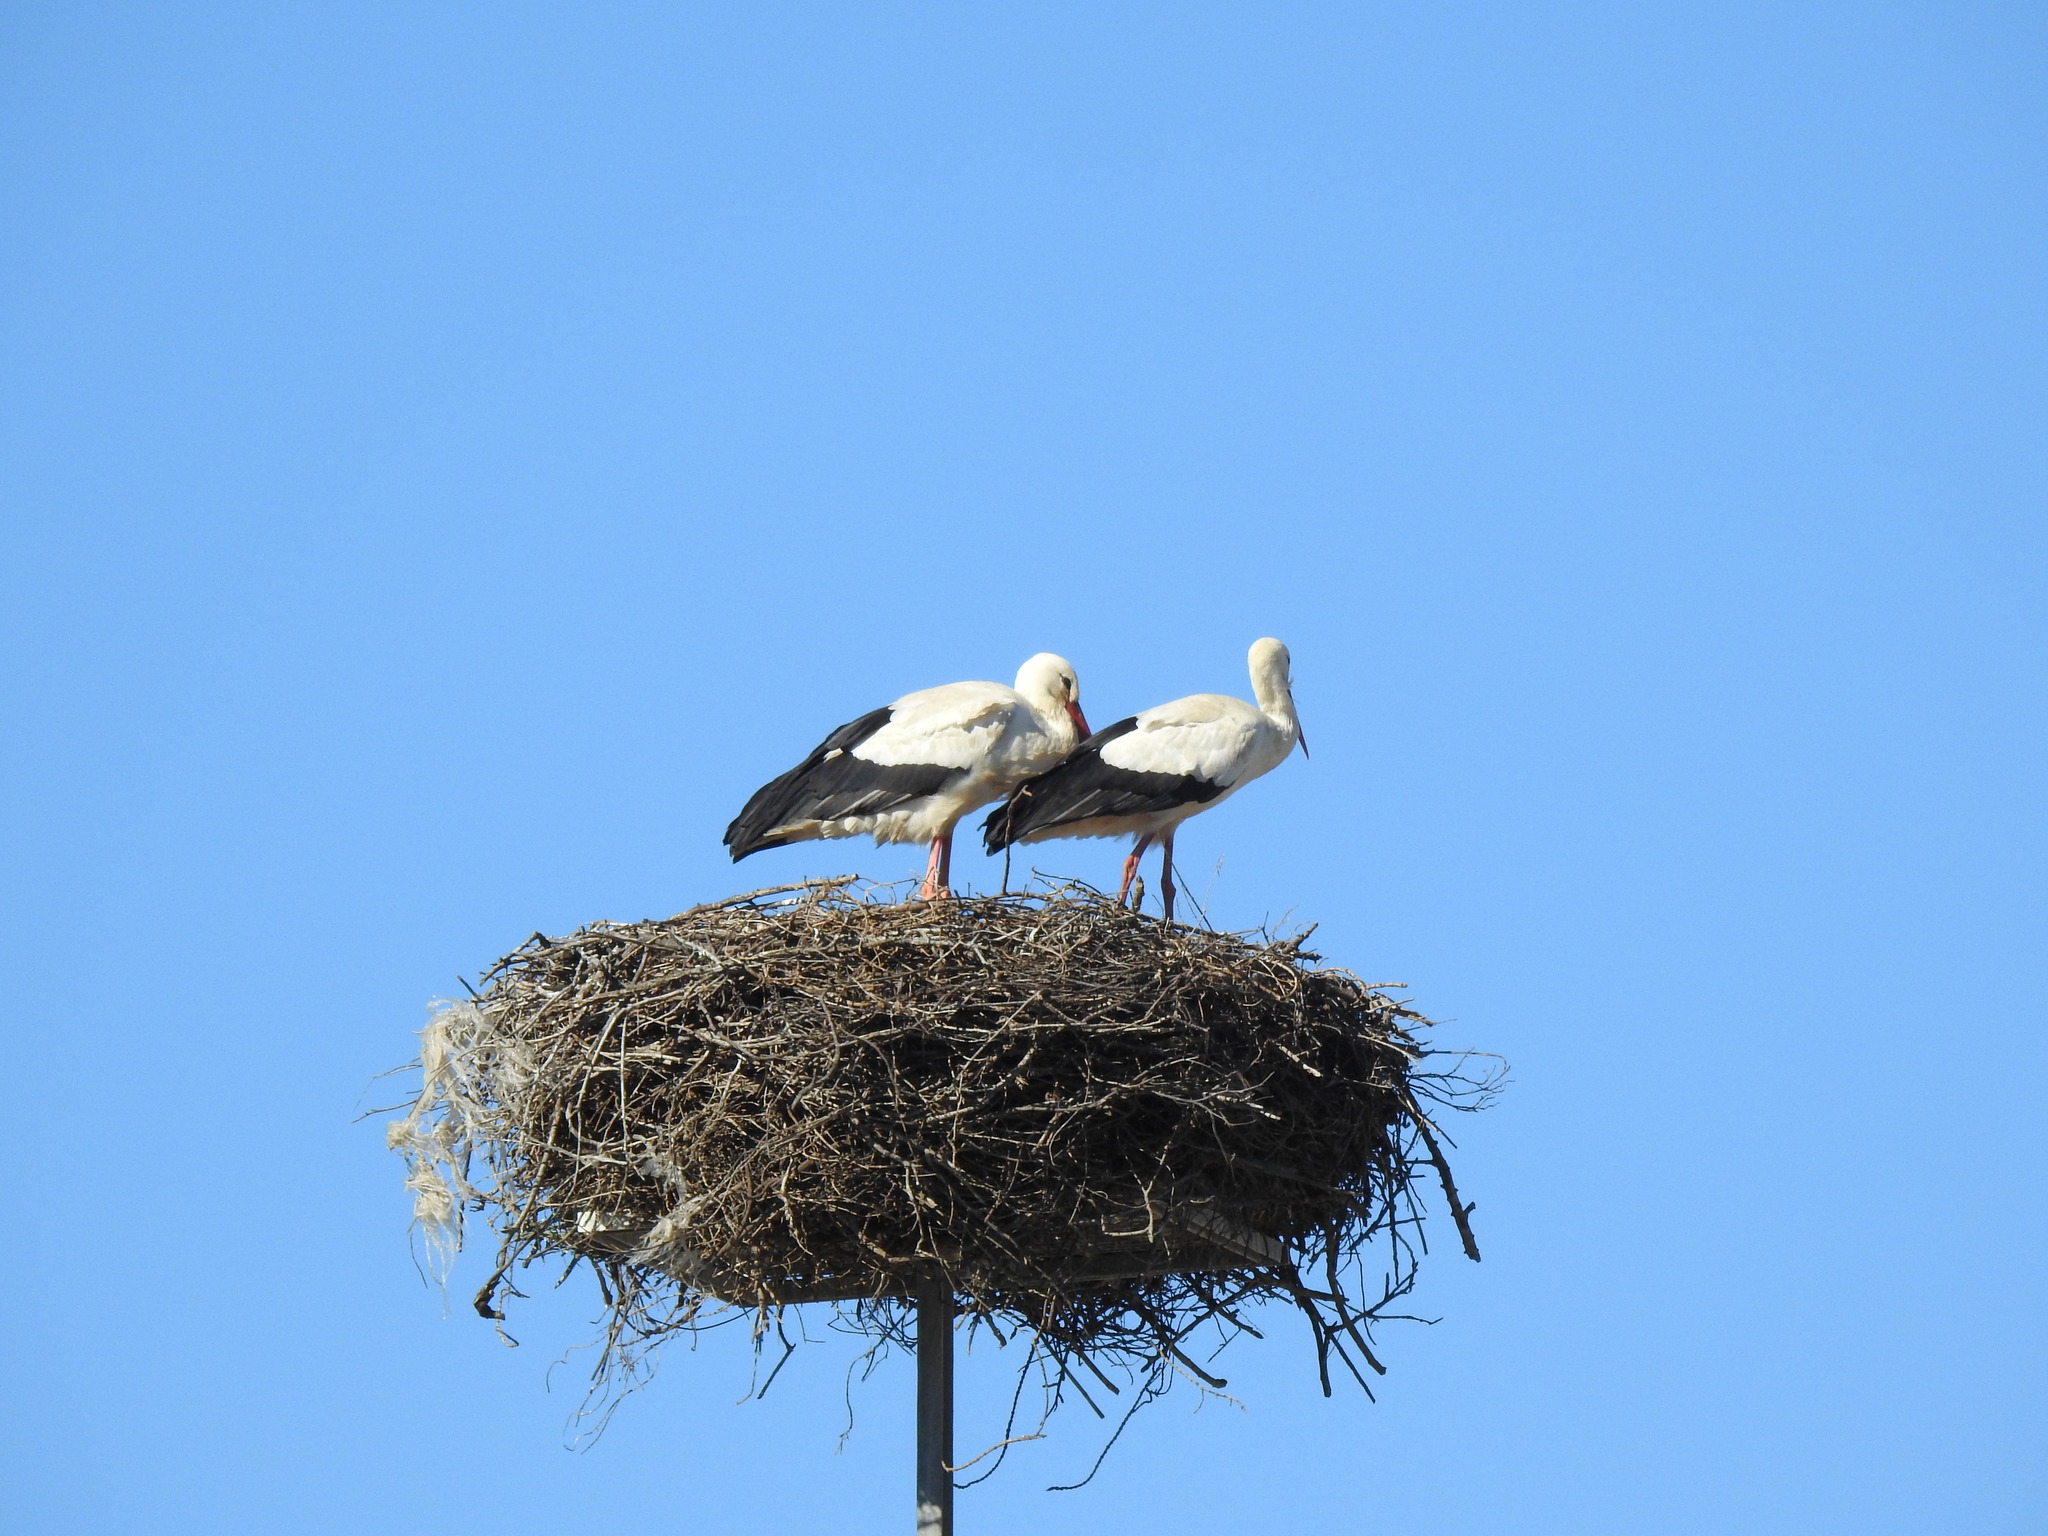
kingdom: Animalia
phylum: Chordata
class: Aves
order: Ciconiiformes
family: Ciconiidae
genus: Ciconia
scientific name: Ciconia ciconia
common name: White stork
